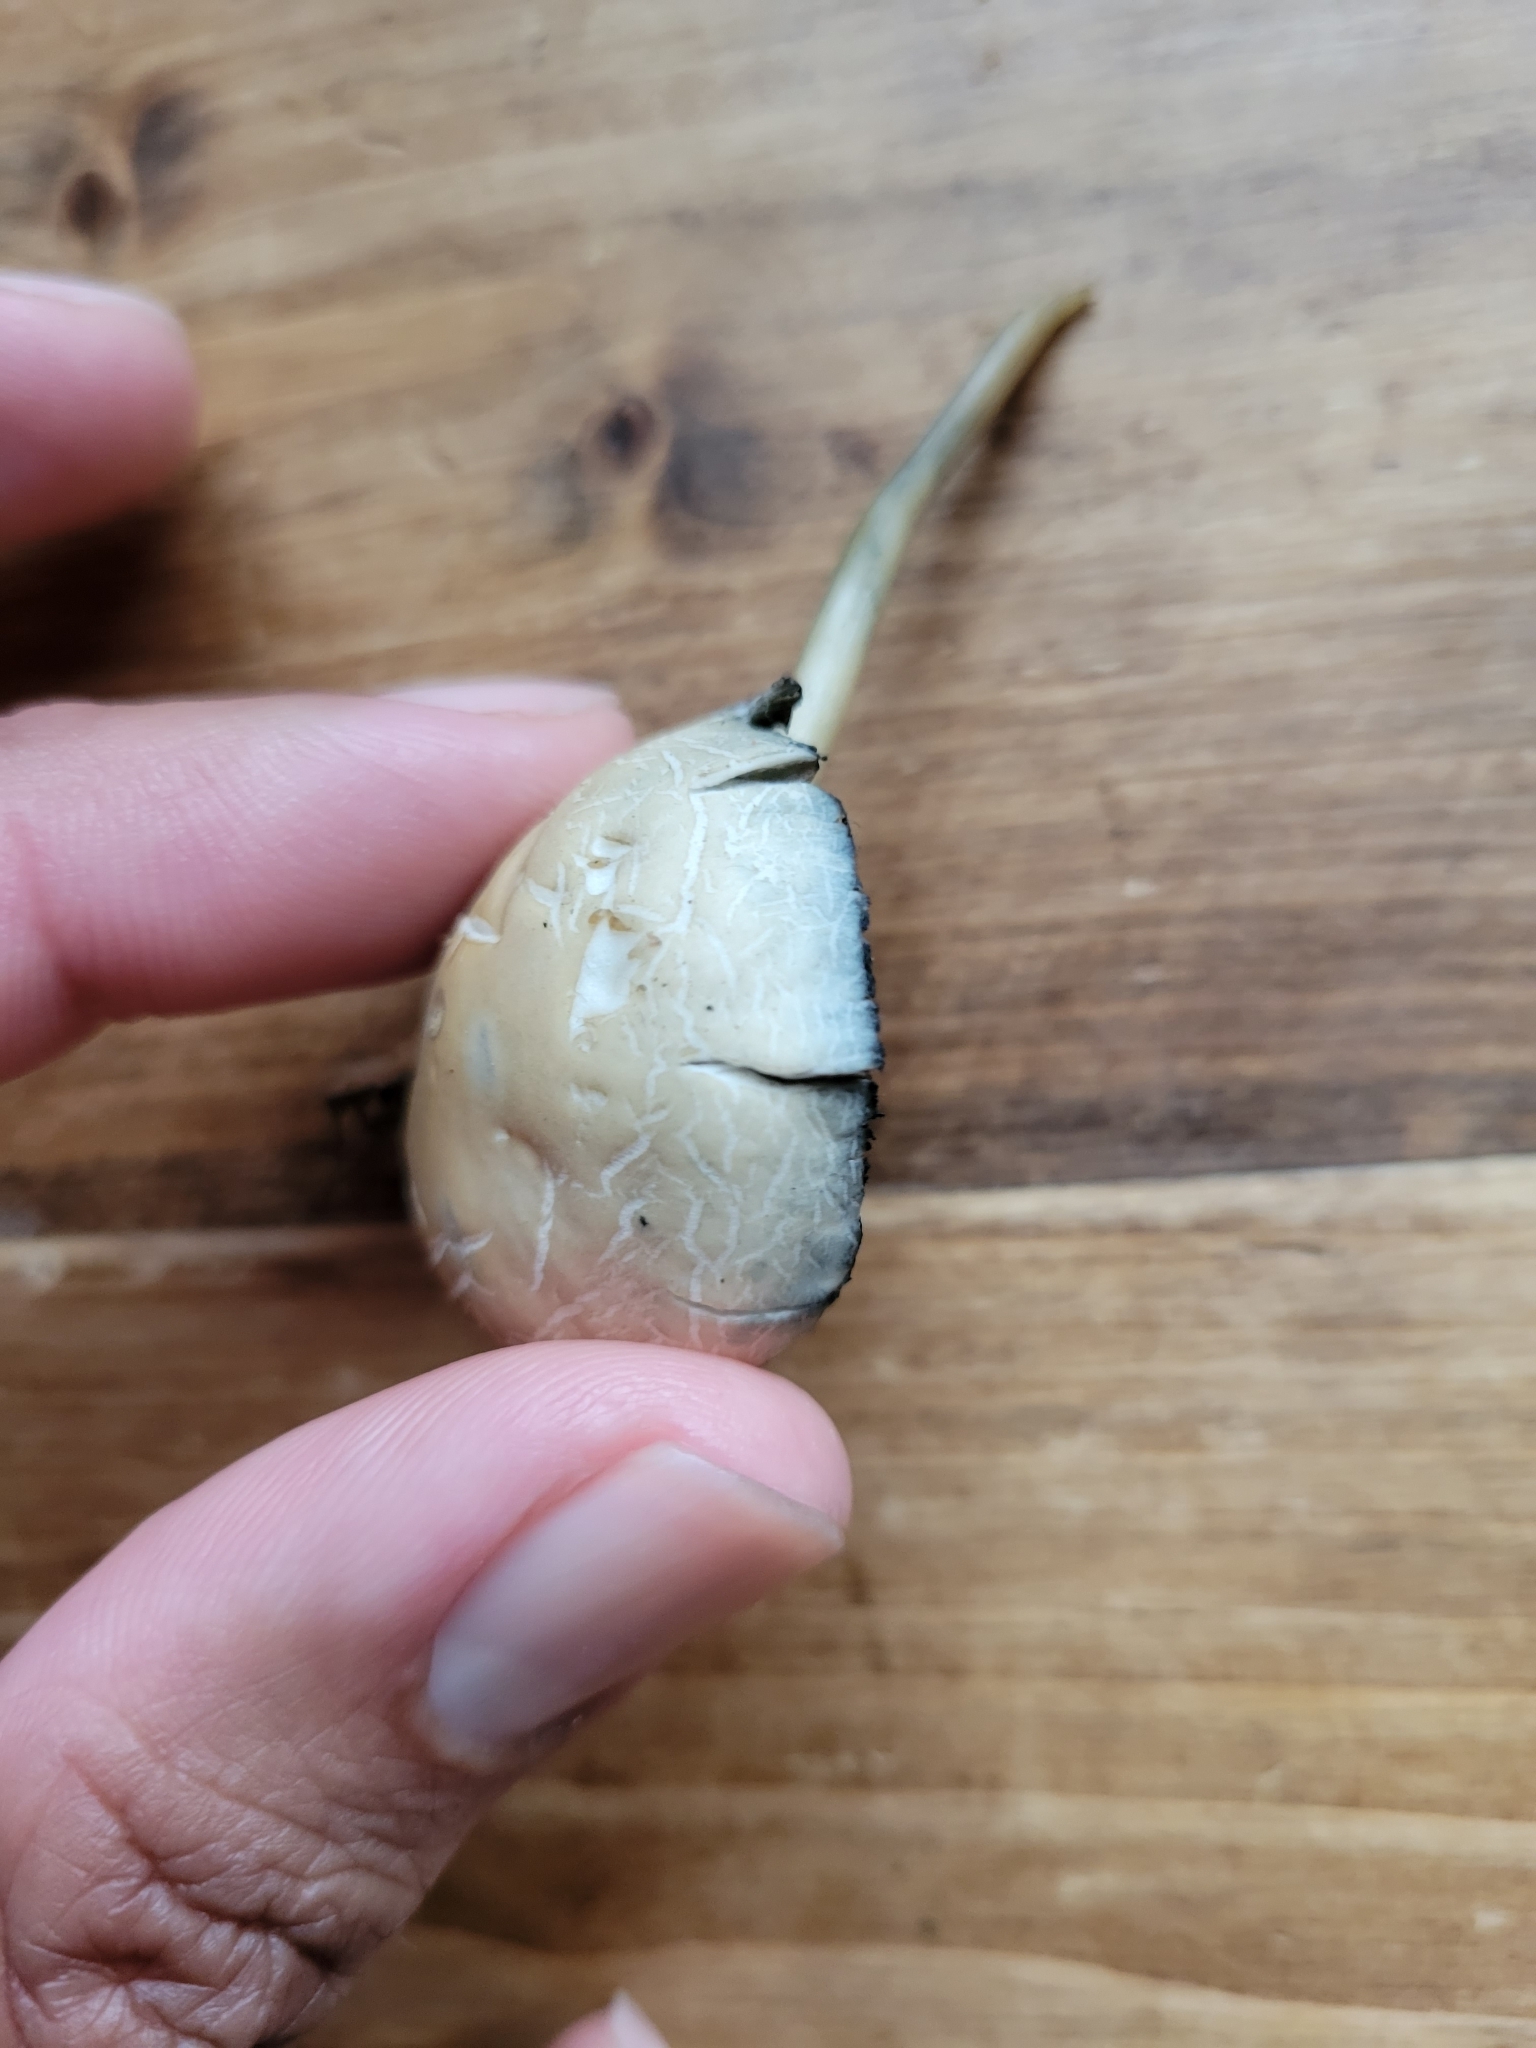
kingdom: Fungi
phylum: Basidiomycota
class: Agaricomycetes
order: Agaricales
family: Bolbitiaceae
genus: Panaeolus
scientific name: Panaeolus cyanescens
